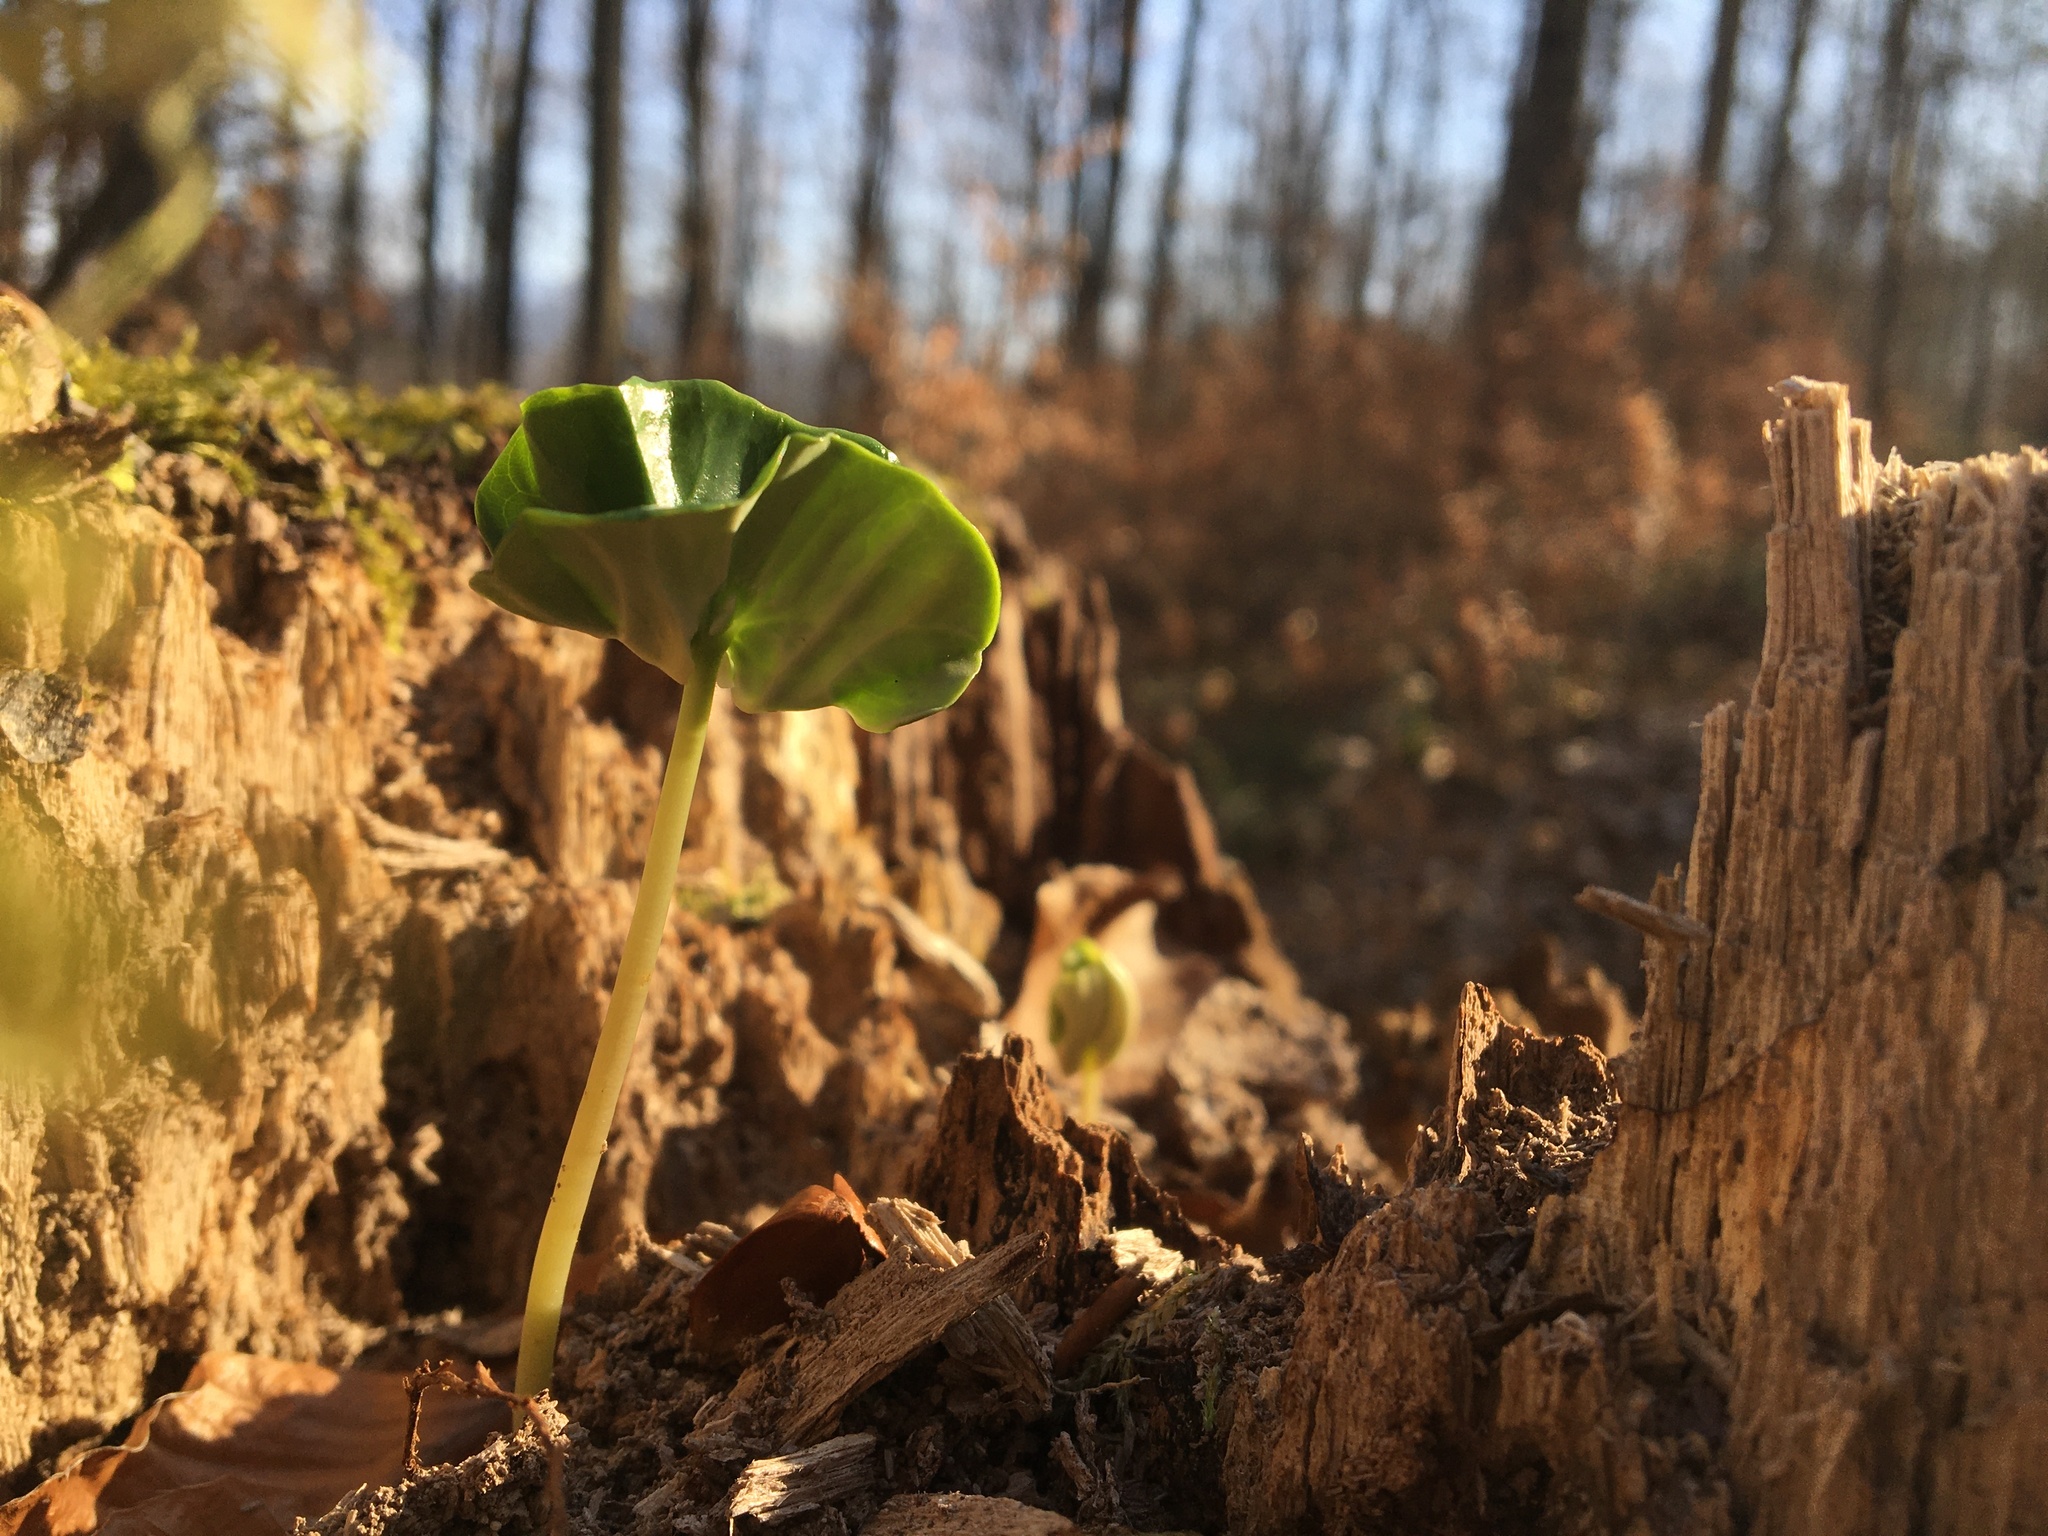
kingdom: Plantae
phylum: Tracheophyta
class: Magnoliopsida
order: Fagales
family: Fagaceae
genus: Fagus
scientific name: Fagus sylvatica
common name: Beech
